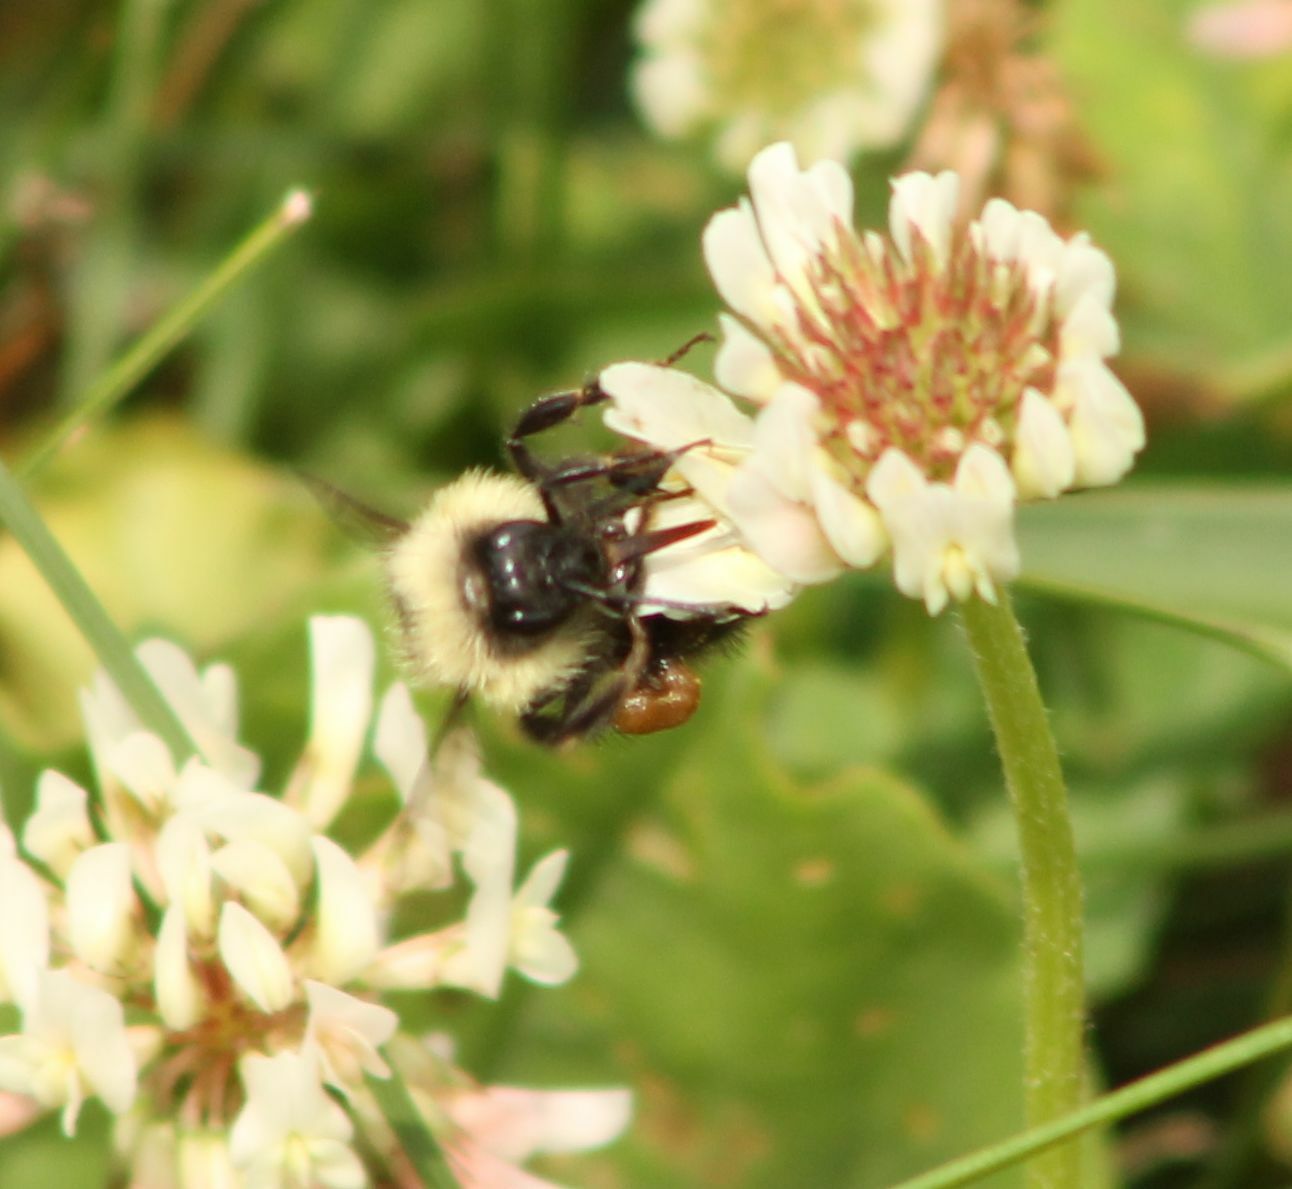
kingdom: Animalia
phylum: Arthropoda
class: Insecta
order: Hymenoptera
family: Apidae
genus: Bombus
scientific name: Bombus vagans
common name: Half-black bumble bee
